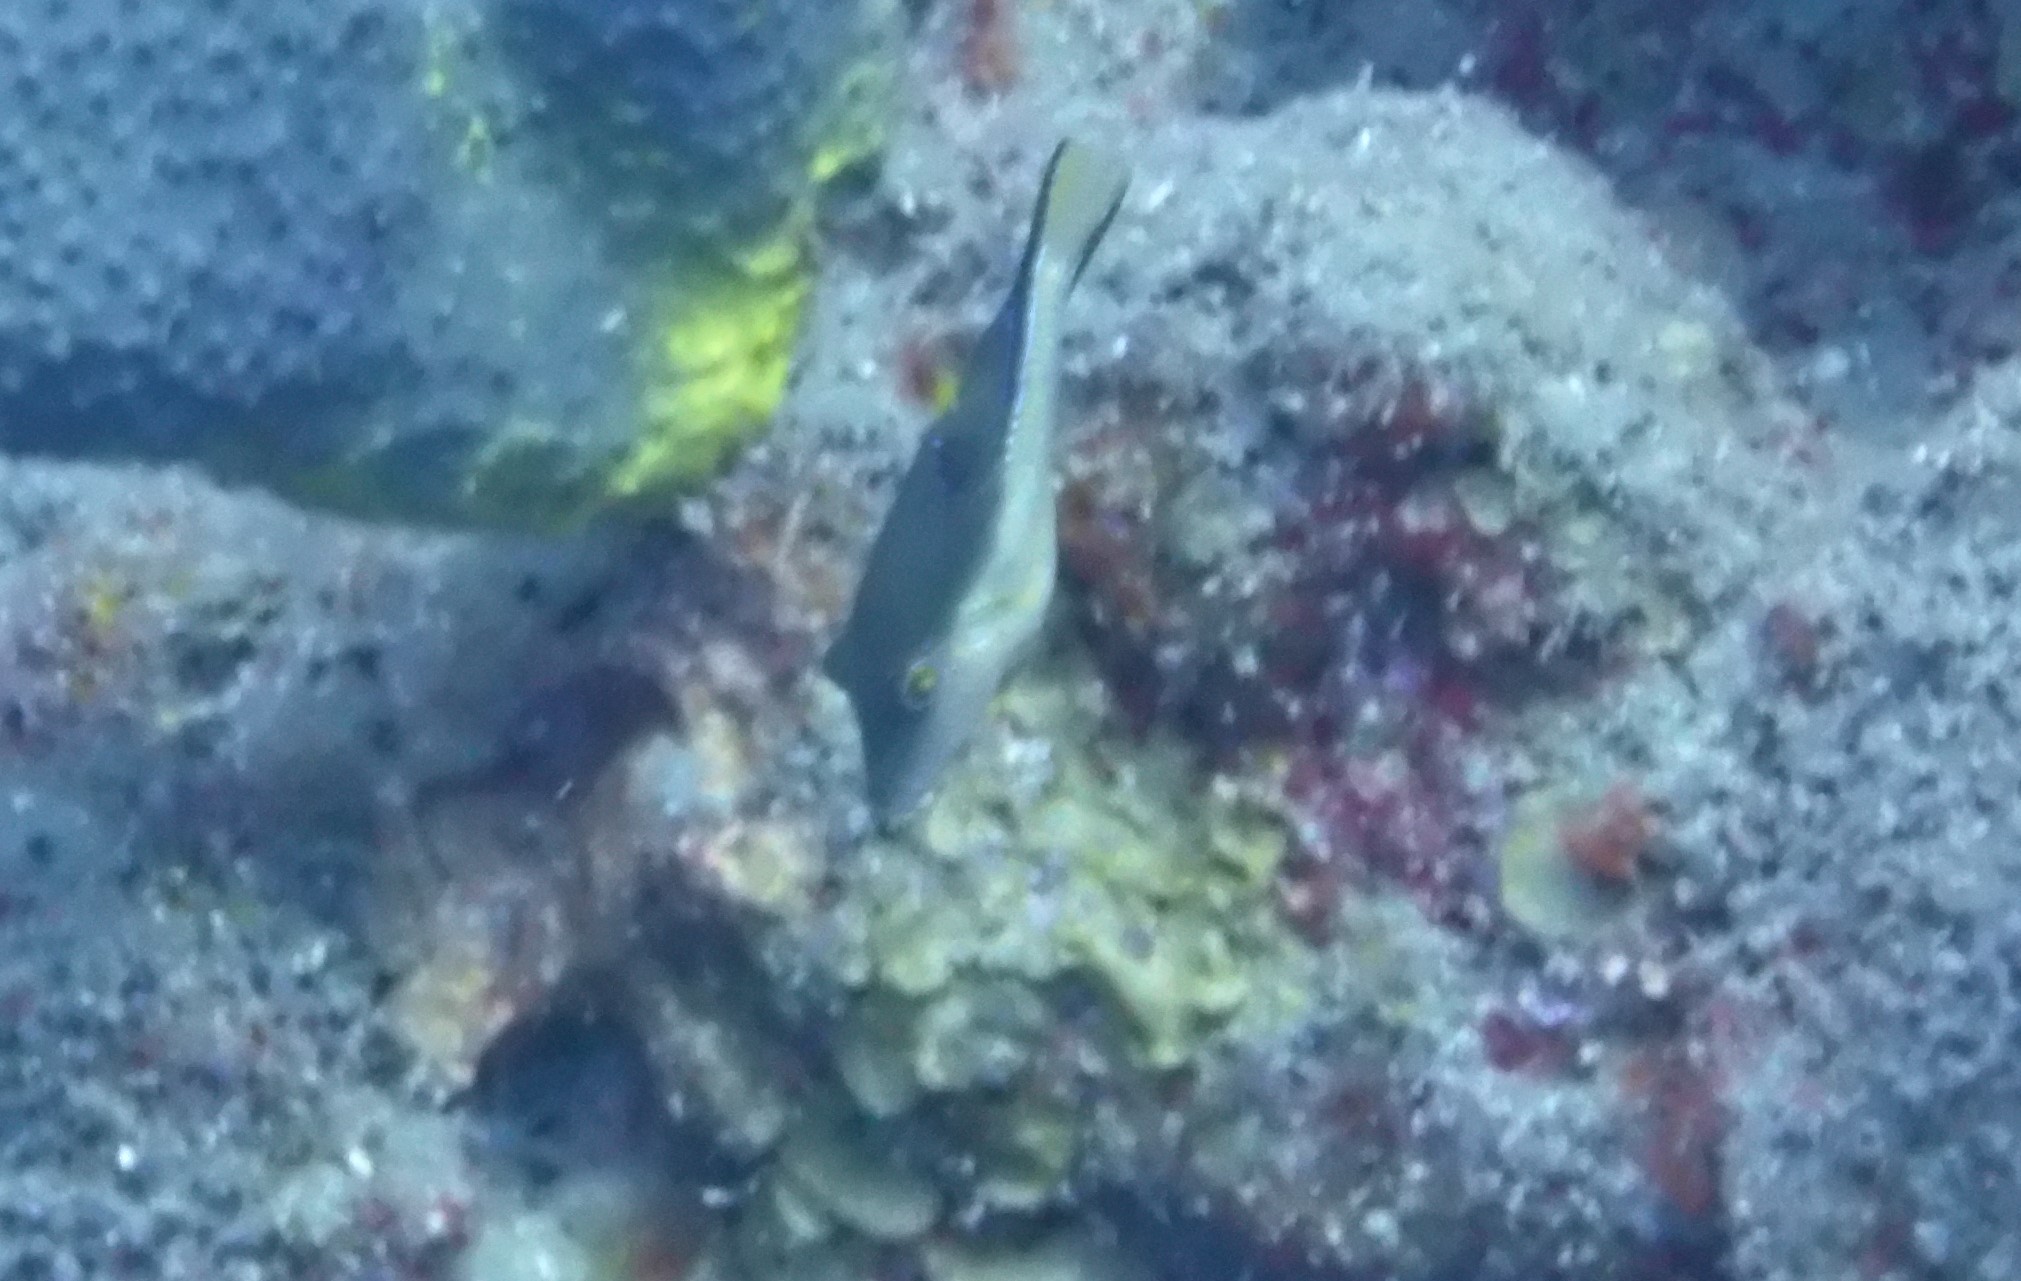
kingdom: Animalia
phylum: Chordata
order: Tetraodontiformes
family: Tetraodontidae
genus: Canthigaster
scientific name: Canthigaster rostrata
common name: Caribbean sharpnose-puffer
